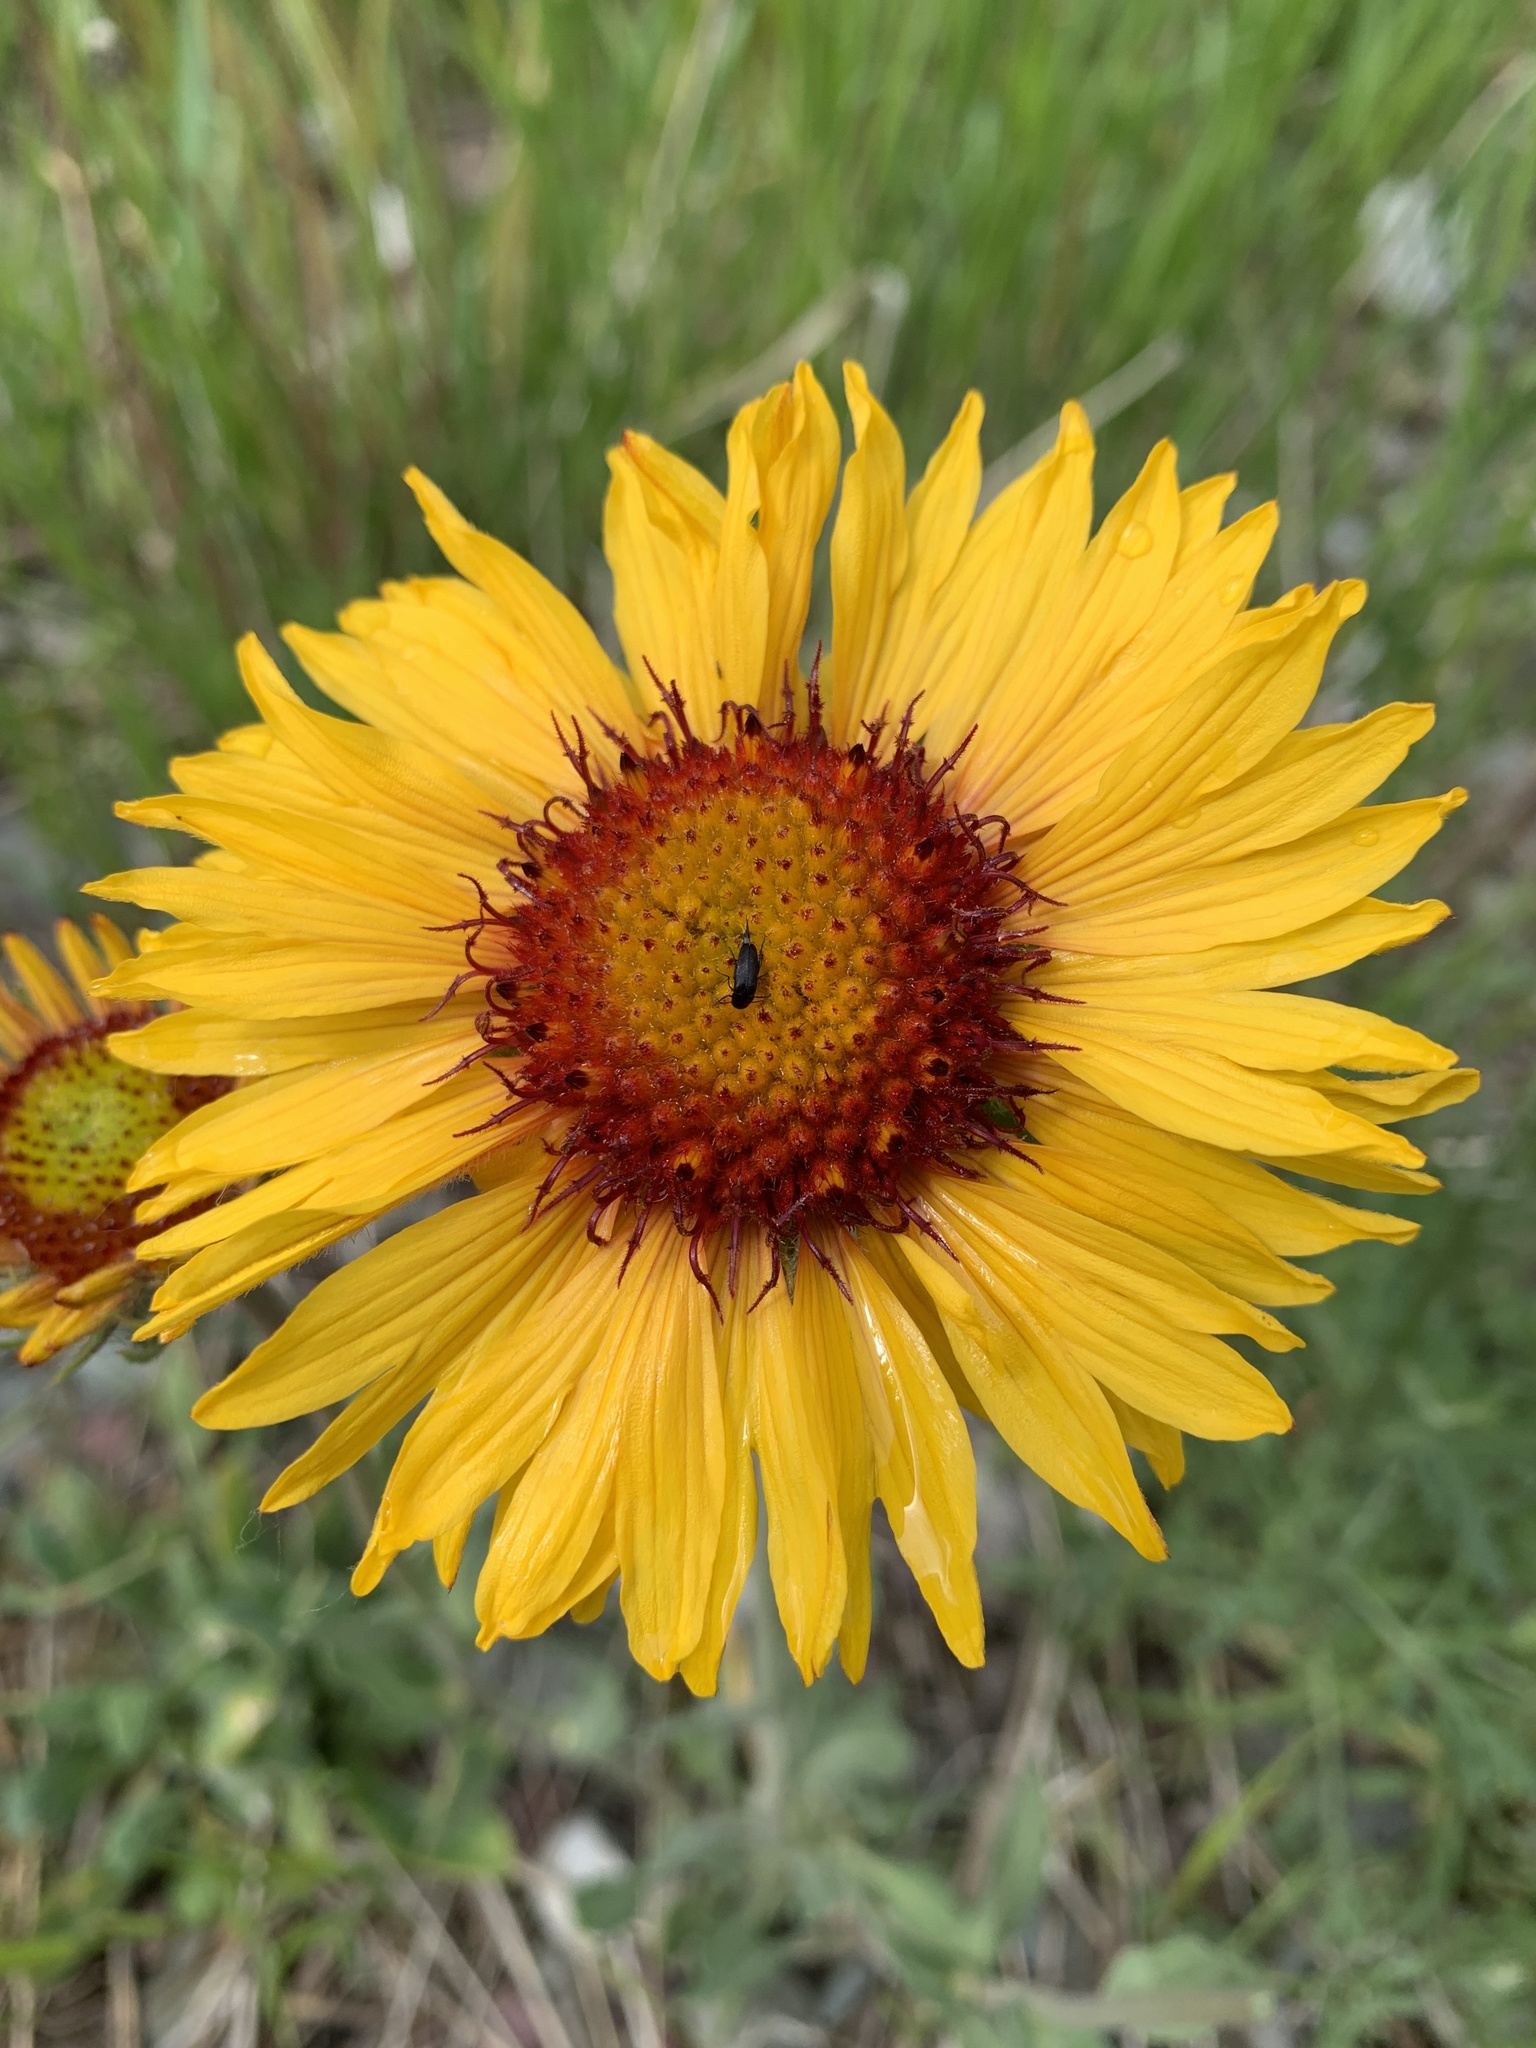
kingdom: Plantae
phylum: Tracheophyta
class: Magnoliopsida
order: Asterales
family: Asteraceae
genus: Gaillardia
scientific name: Gaillardia aristata
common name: Blanket-flower
